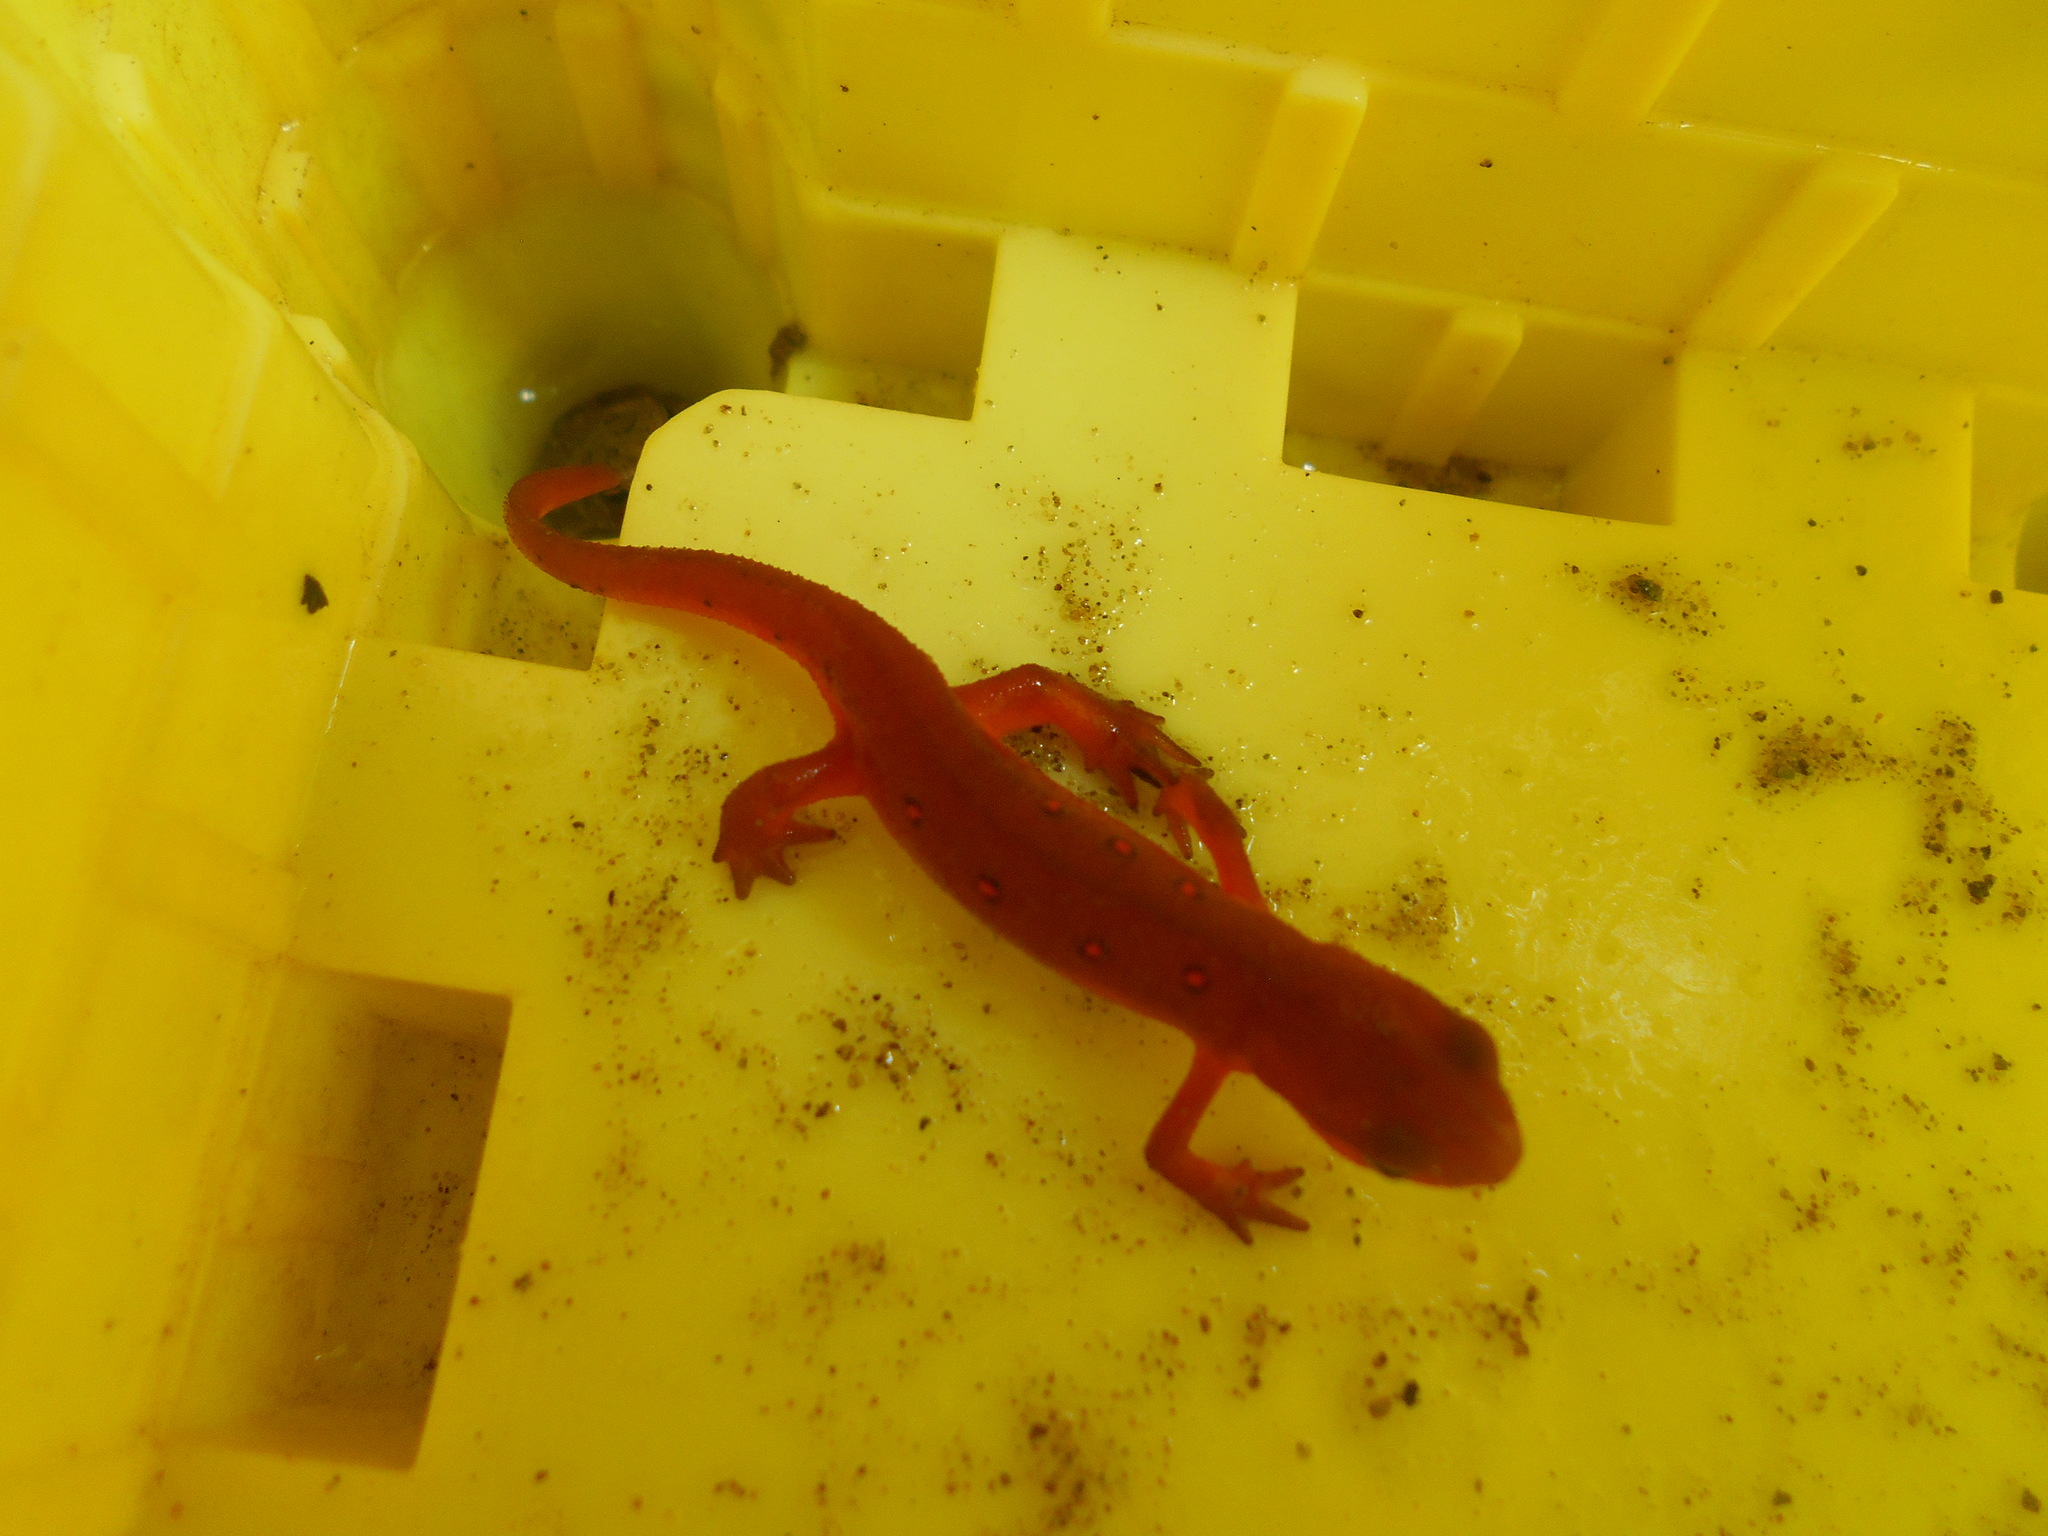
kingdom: Animalia
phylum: Chordata
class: Amphibia
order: Caudata
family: Salamandridae
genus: Notophthalmus
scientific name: Notophthalmus viridescens
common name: Eastern newt
